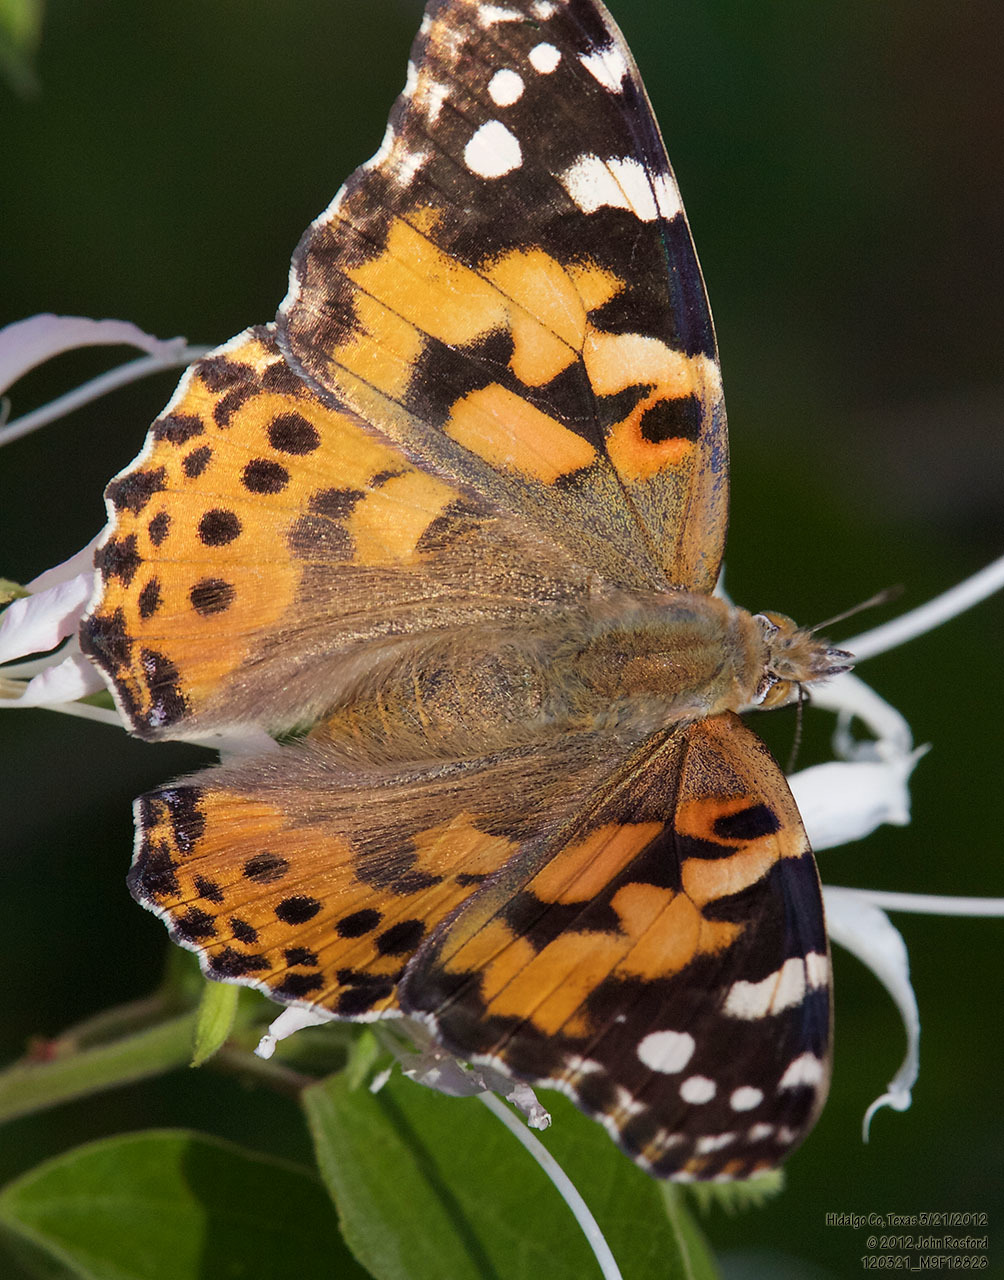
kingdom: Animalia
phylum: Arthropoda
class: Insecta
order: Lepidoptera
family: Nymphalidae
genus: Vanessa
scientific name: Vanessa cardui
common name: Painted lady
